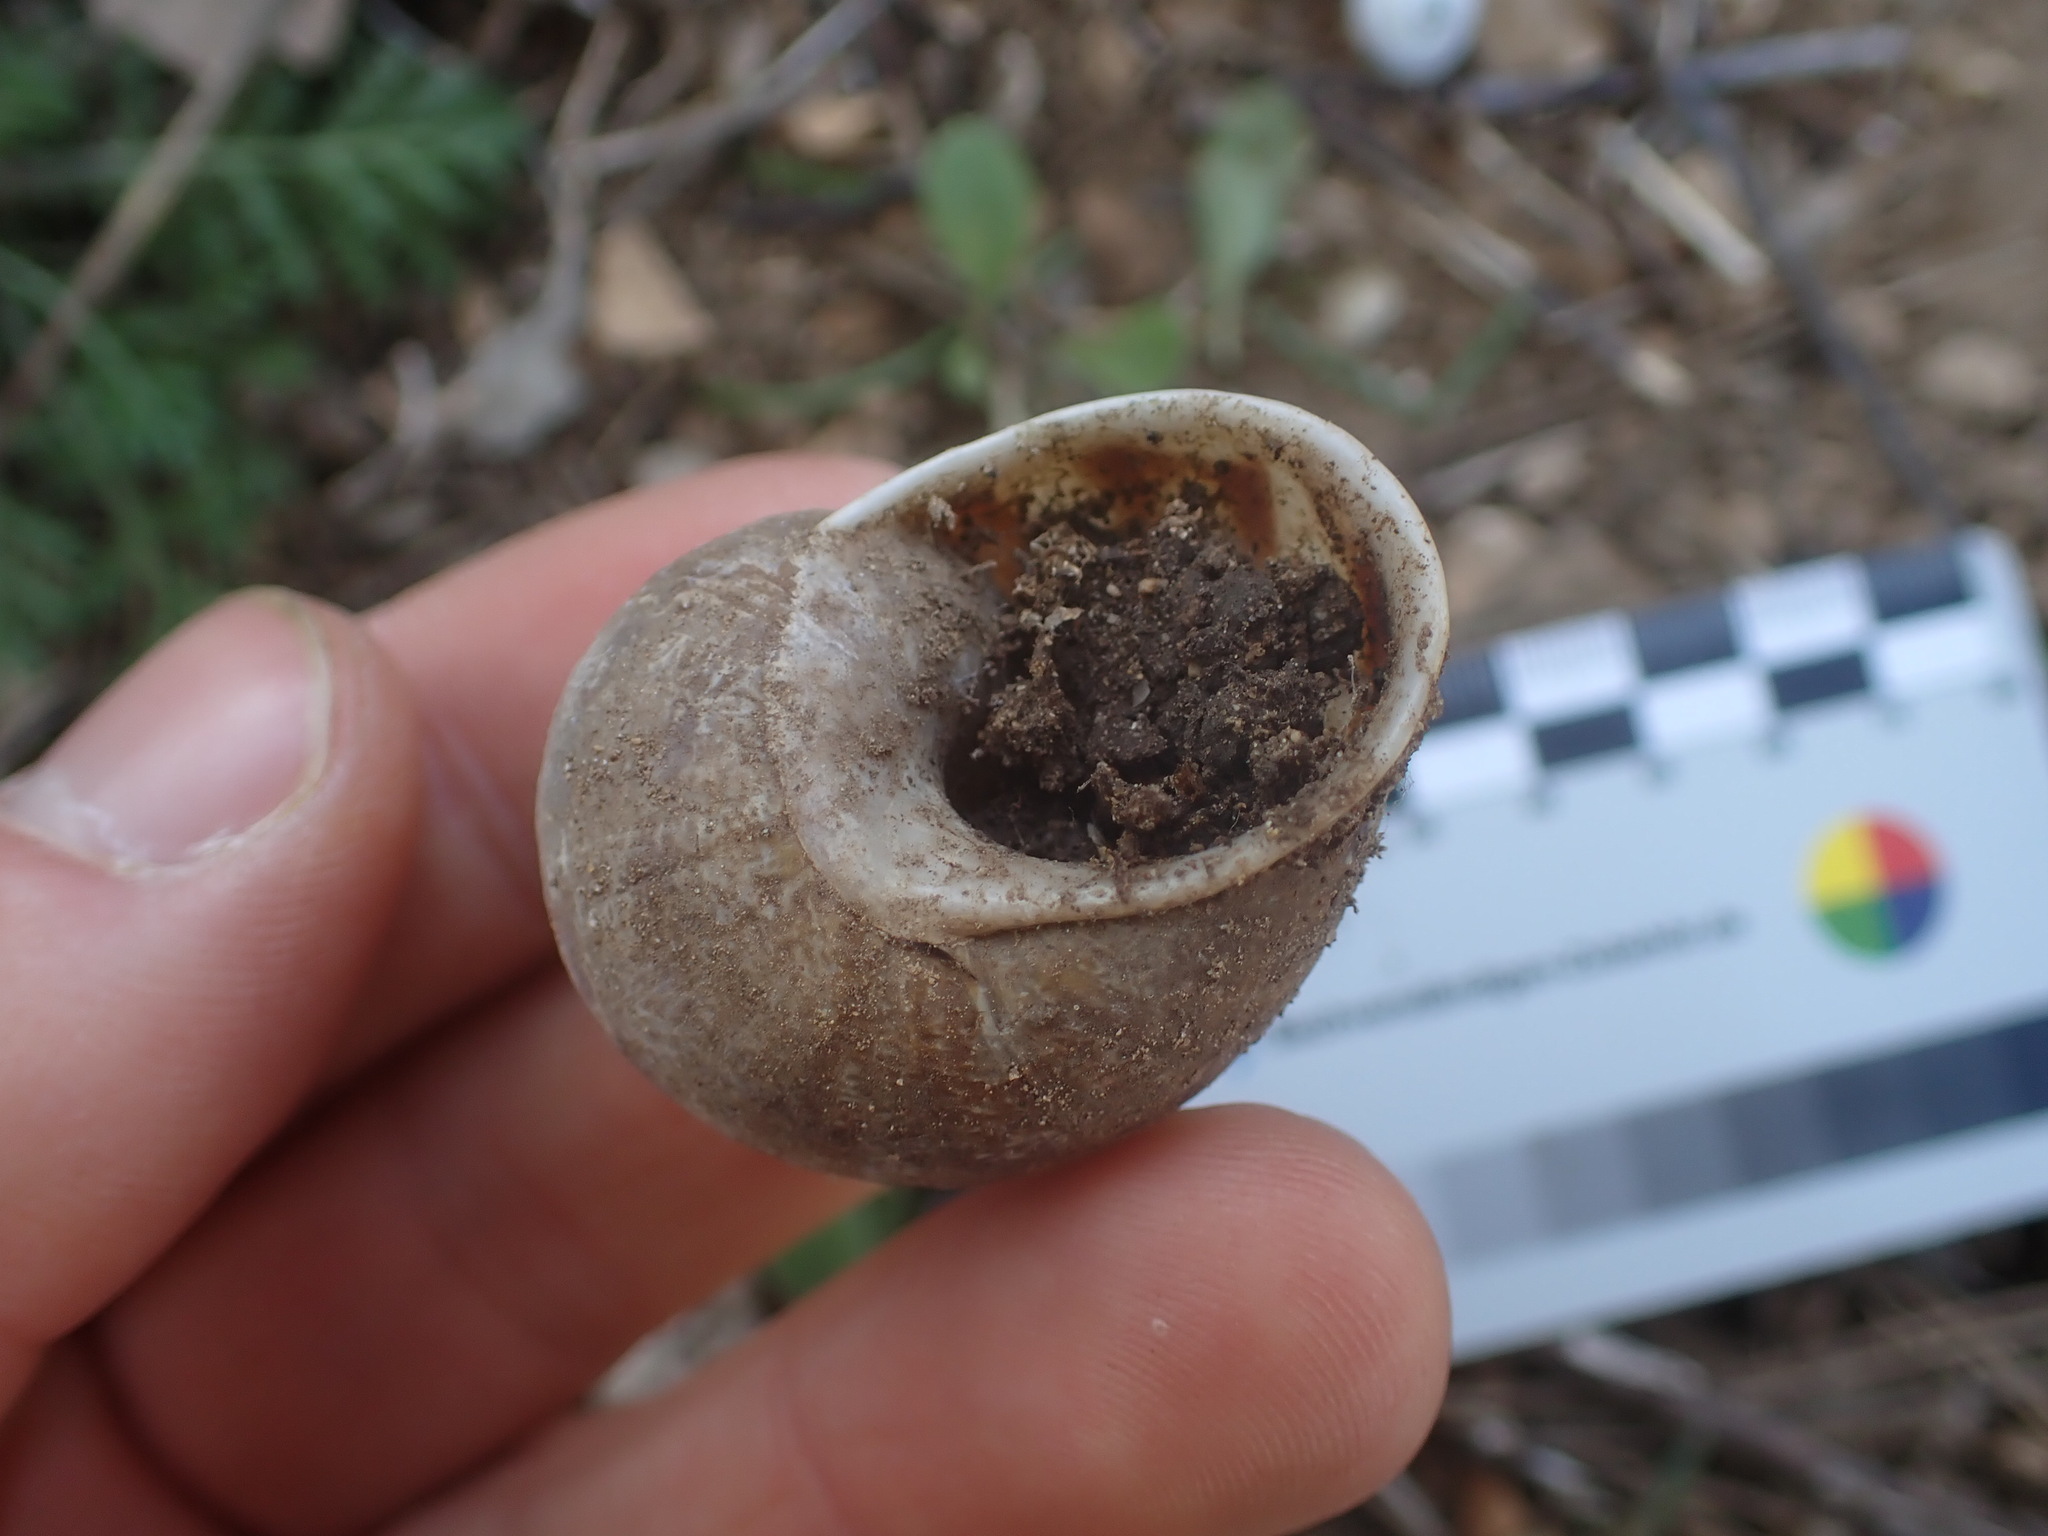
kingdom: Animalia
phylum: Mollusca
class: Gastropoda
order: Stylommatophora
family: Helicidae
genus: Cornu
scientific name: Cornu aspersum
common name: Brown garden snail
